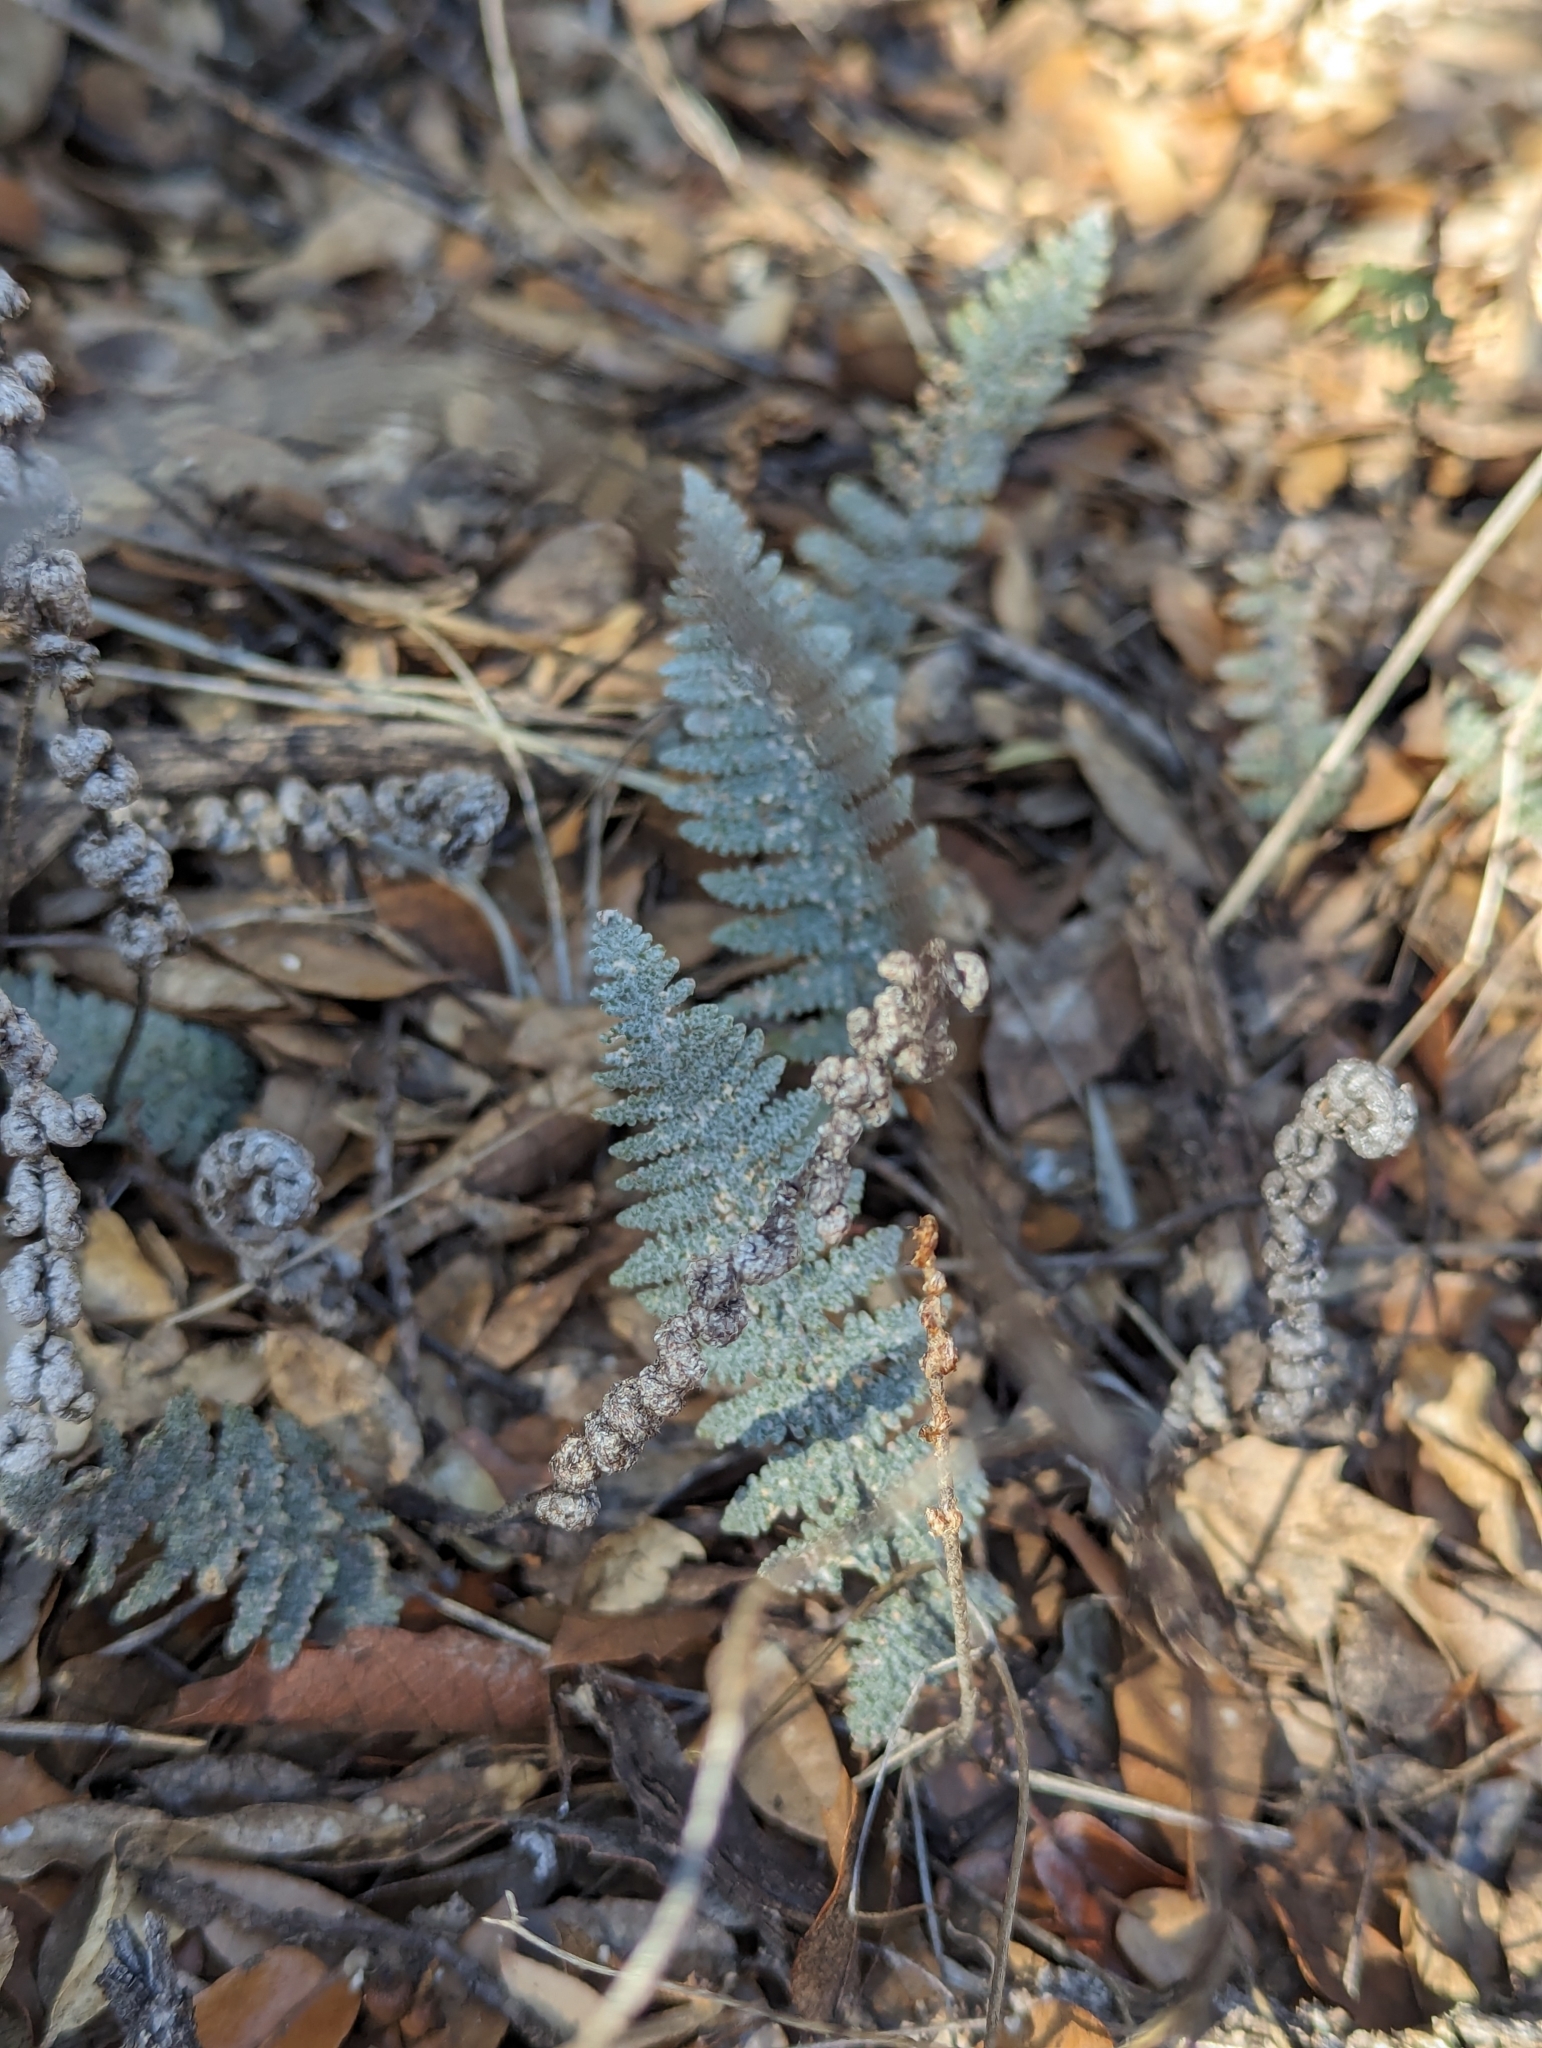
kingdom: Plantae
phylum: Tracheophyta
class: Polypodiopsida
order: Polypodiales
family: Pteridaceae
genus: Myriopteris
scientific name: Myriopteris lindheimeri
